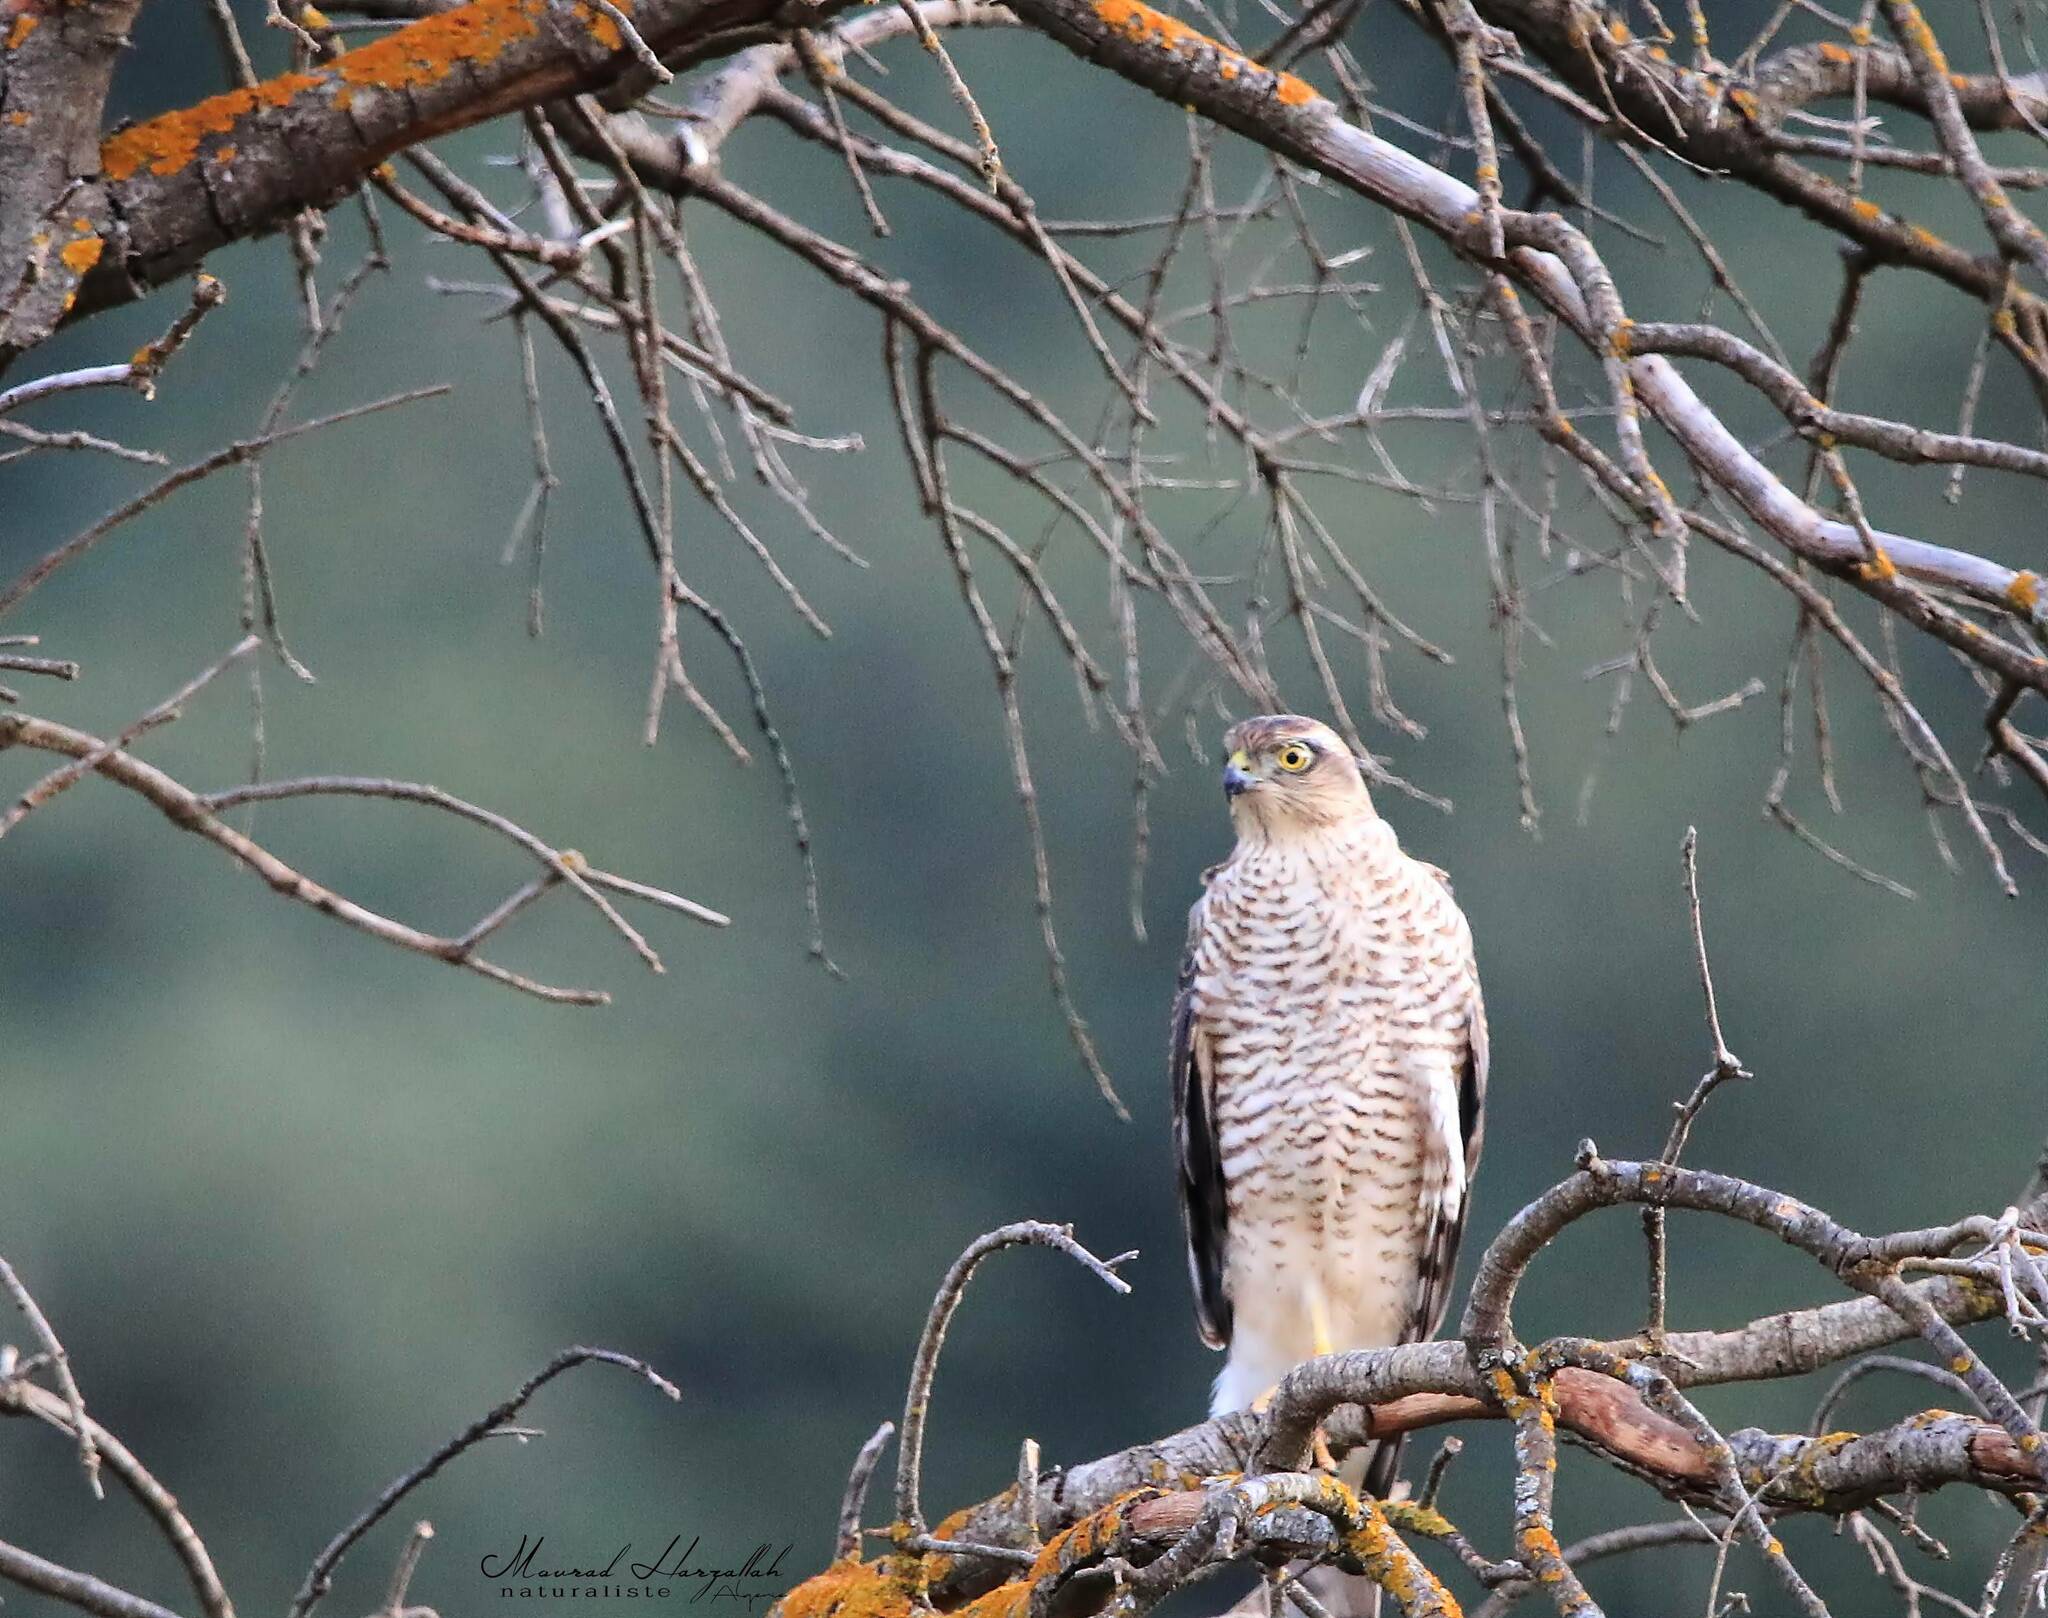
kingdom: Animalia
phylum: Chordata
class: Aves
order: Accipitriformes
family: Accipitridae
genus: Accipiter
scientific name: Accipiter nisus
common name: Eurasian sparrowhawk
